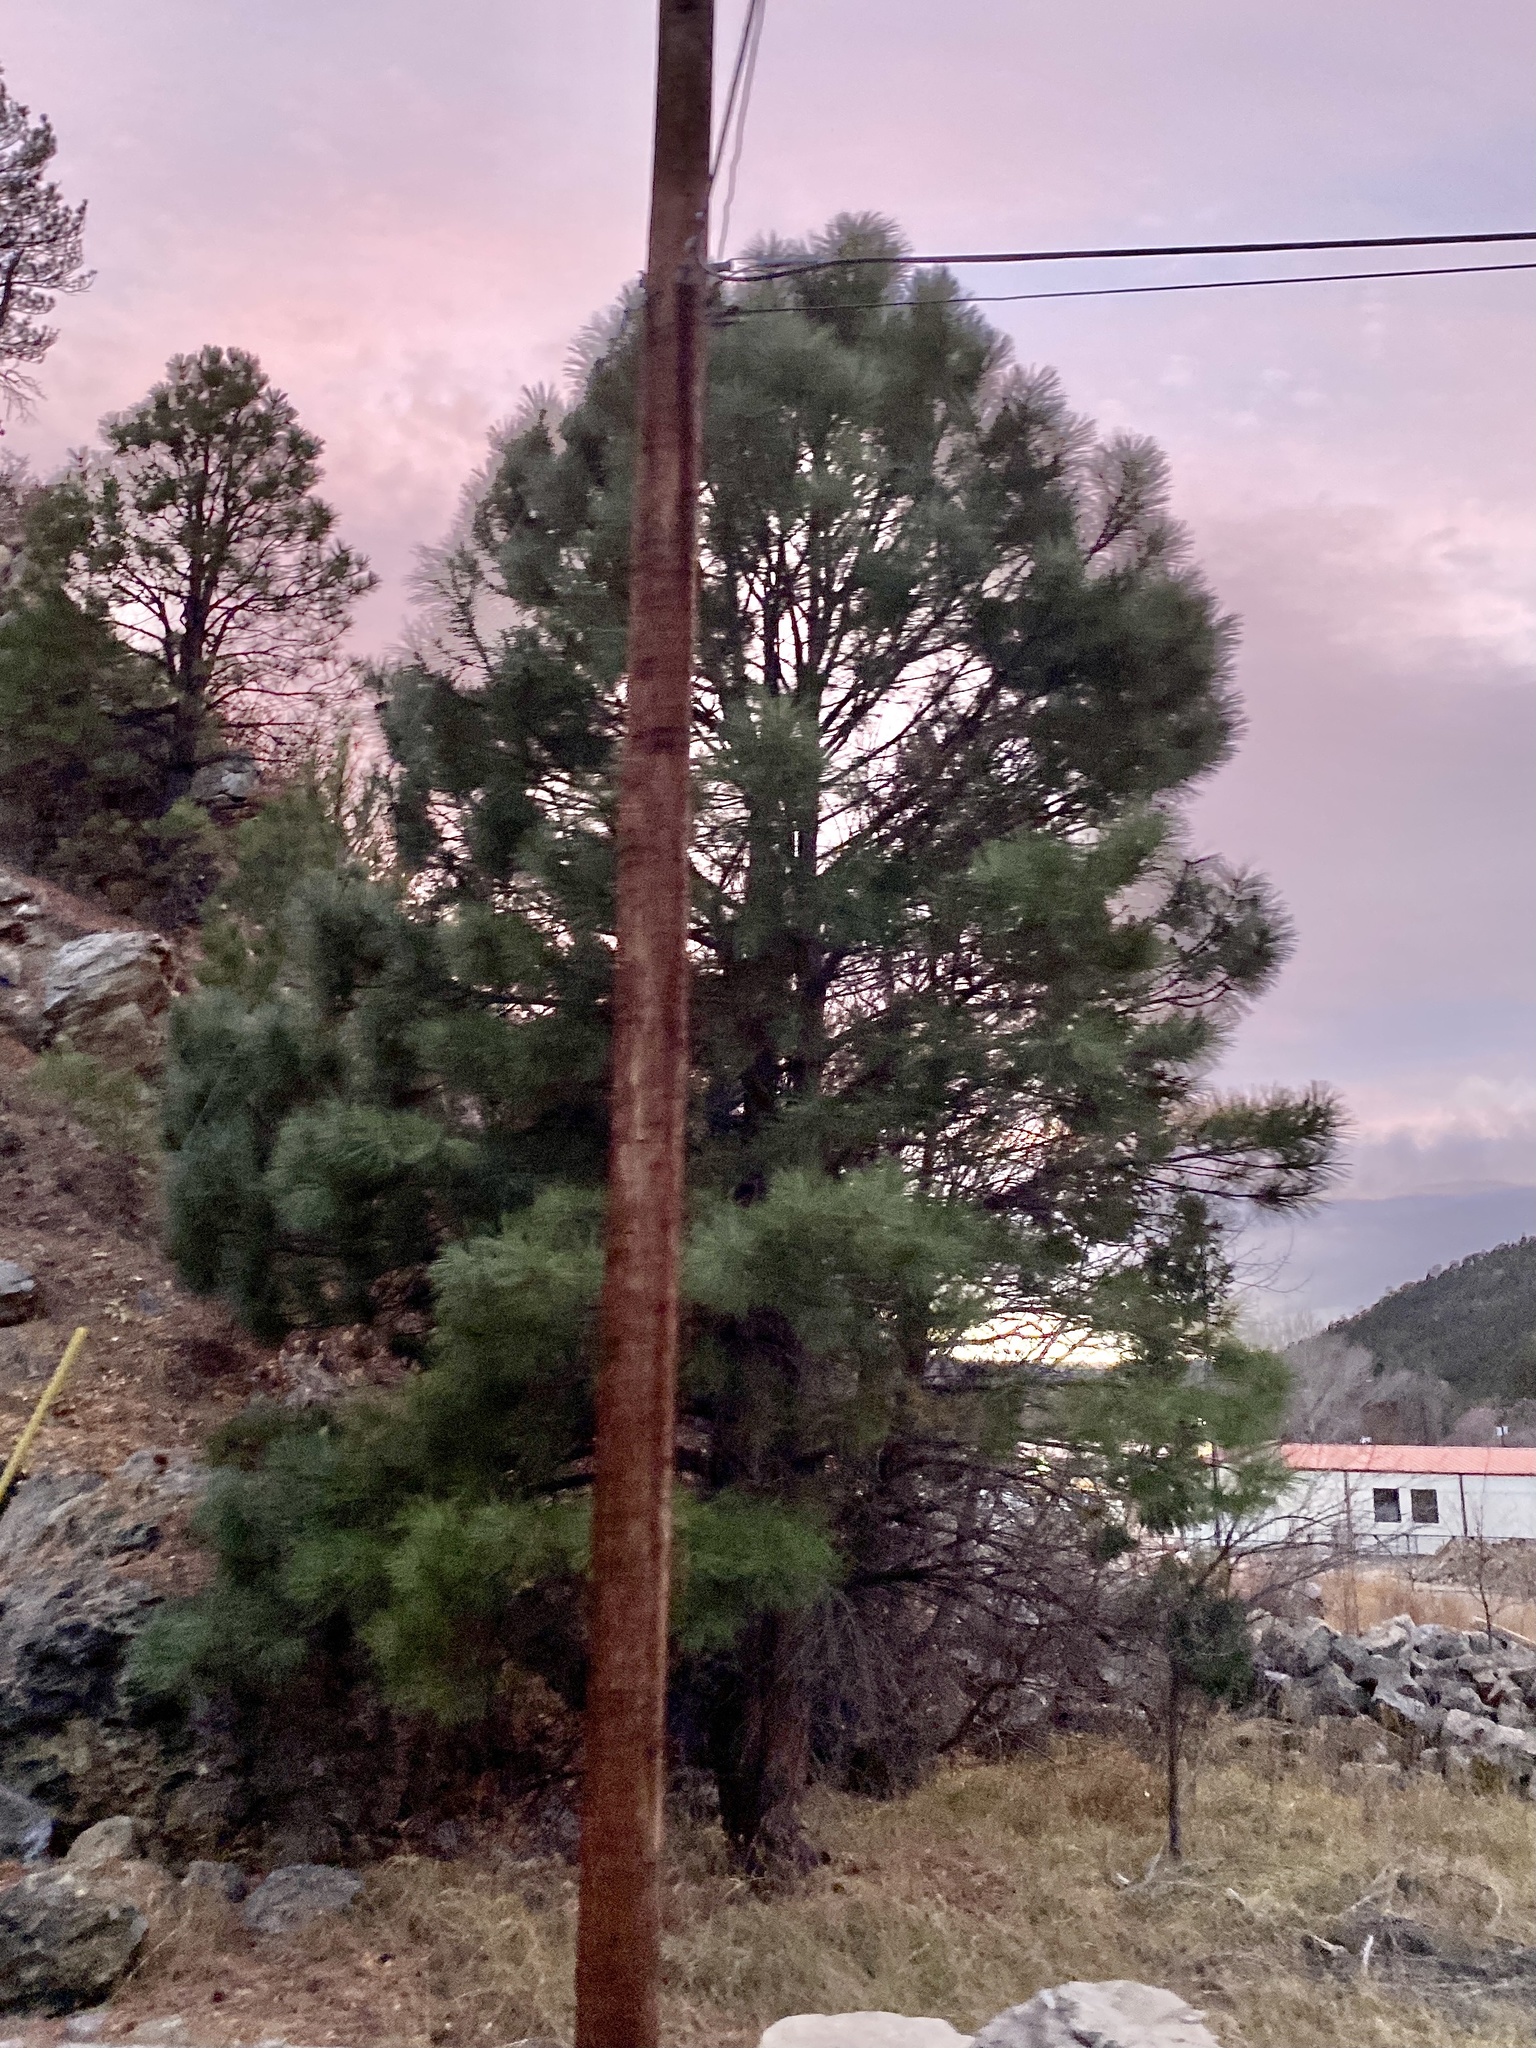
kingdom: Plantae
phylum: Tracheophyta
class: Pinopsida
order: Pinales
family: Pinaceae
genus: Pinus
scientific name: Pinus ponderosa
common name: Western yellow-pine
